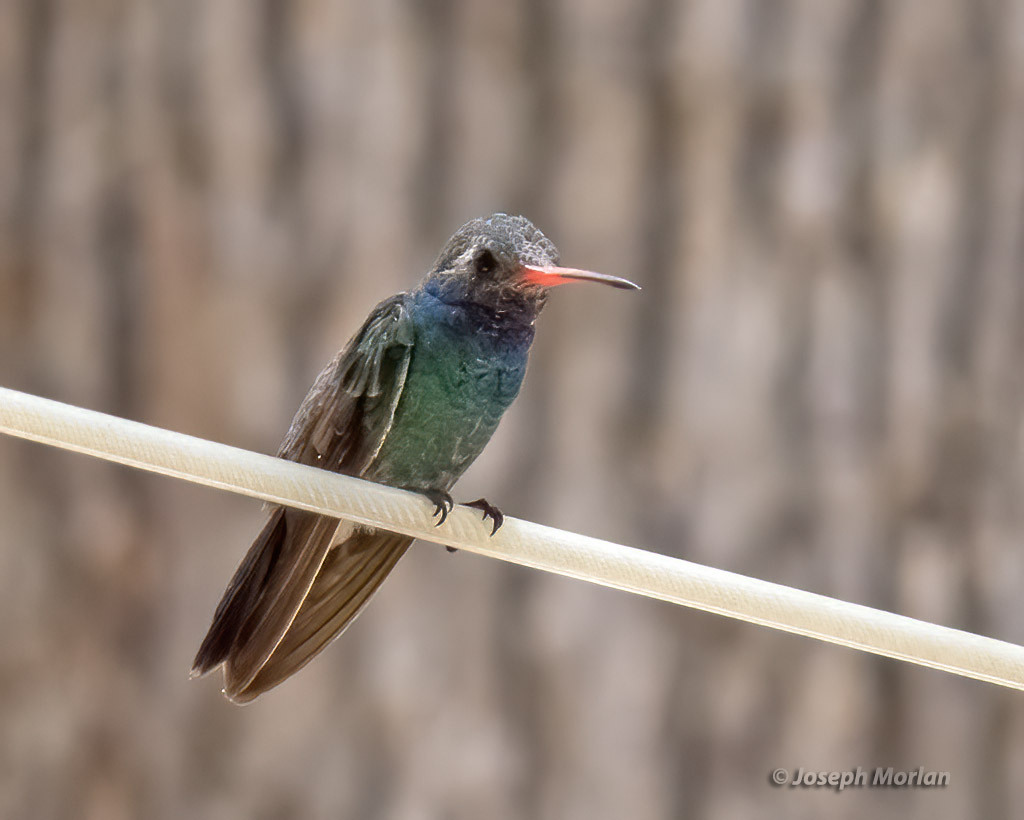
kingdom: Animalia
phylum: Chordata
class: Aves
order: Apodiformes
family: Trochilidae
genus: Cynanthus
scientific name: Cynanthus latirostris
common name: Broad-billed hummingbird
